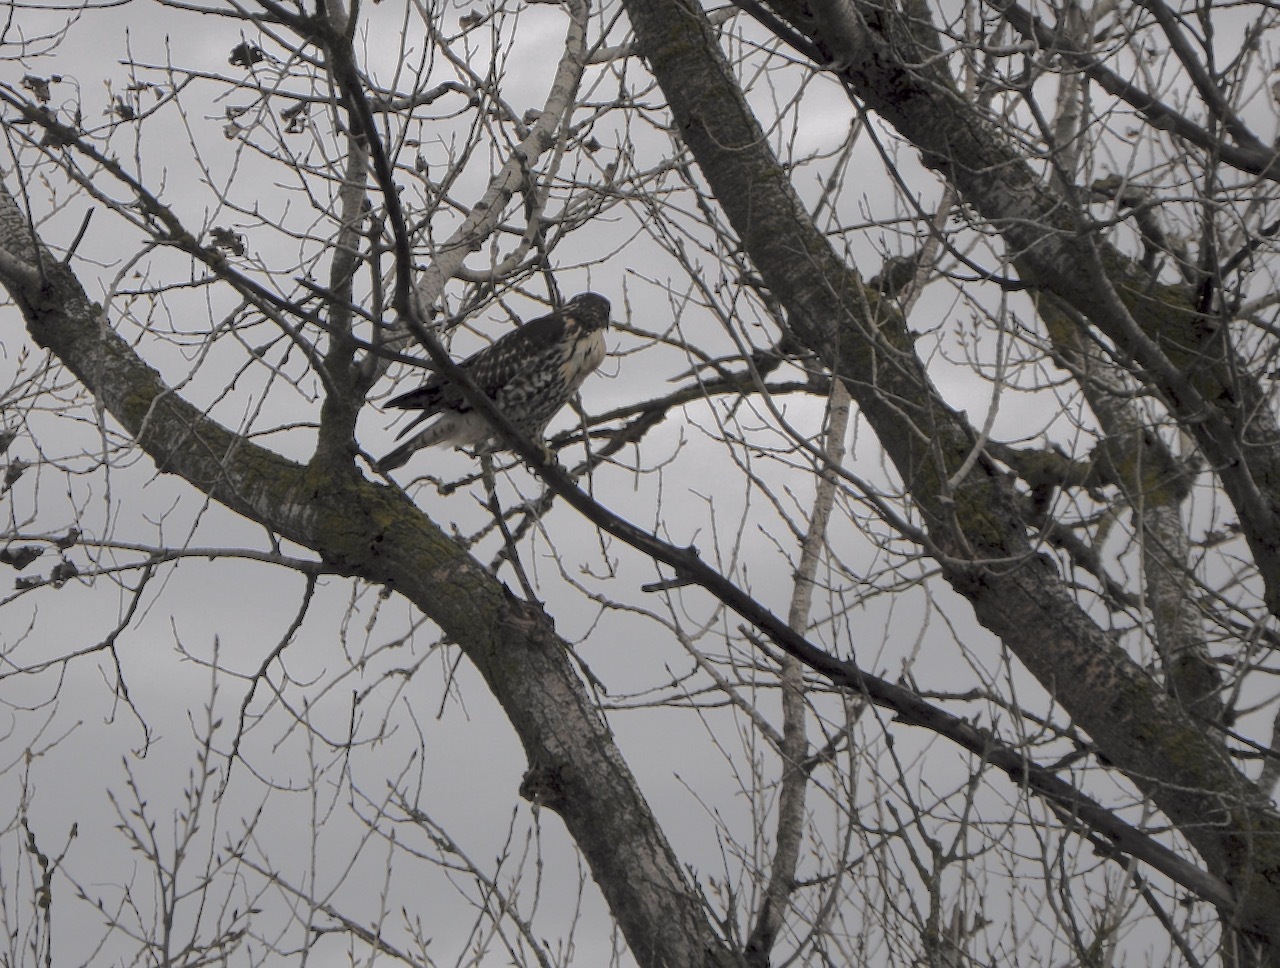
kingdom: Animalia
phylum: Chordata
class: Aves
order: Accipitriformes
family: Accipitridae
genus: Buteo
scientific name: Buteo jamaicensis
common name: Red-tailed hawk
